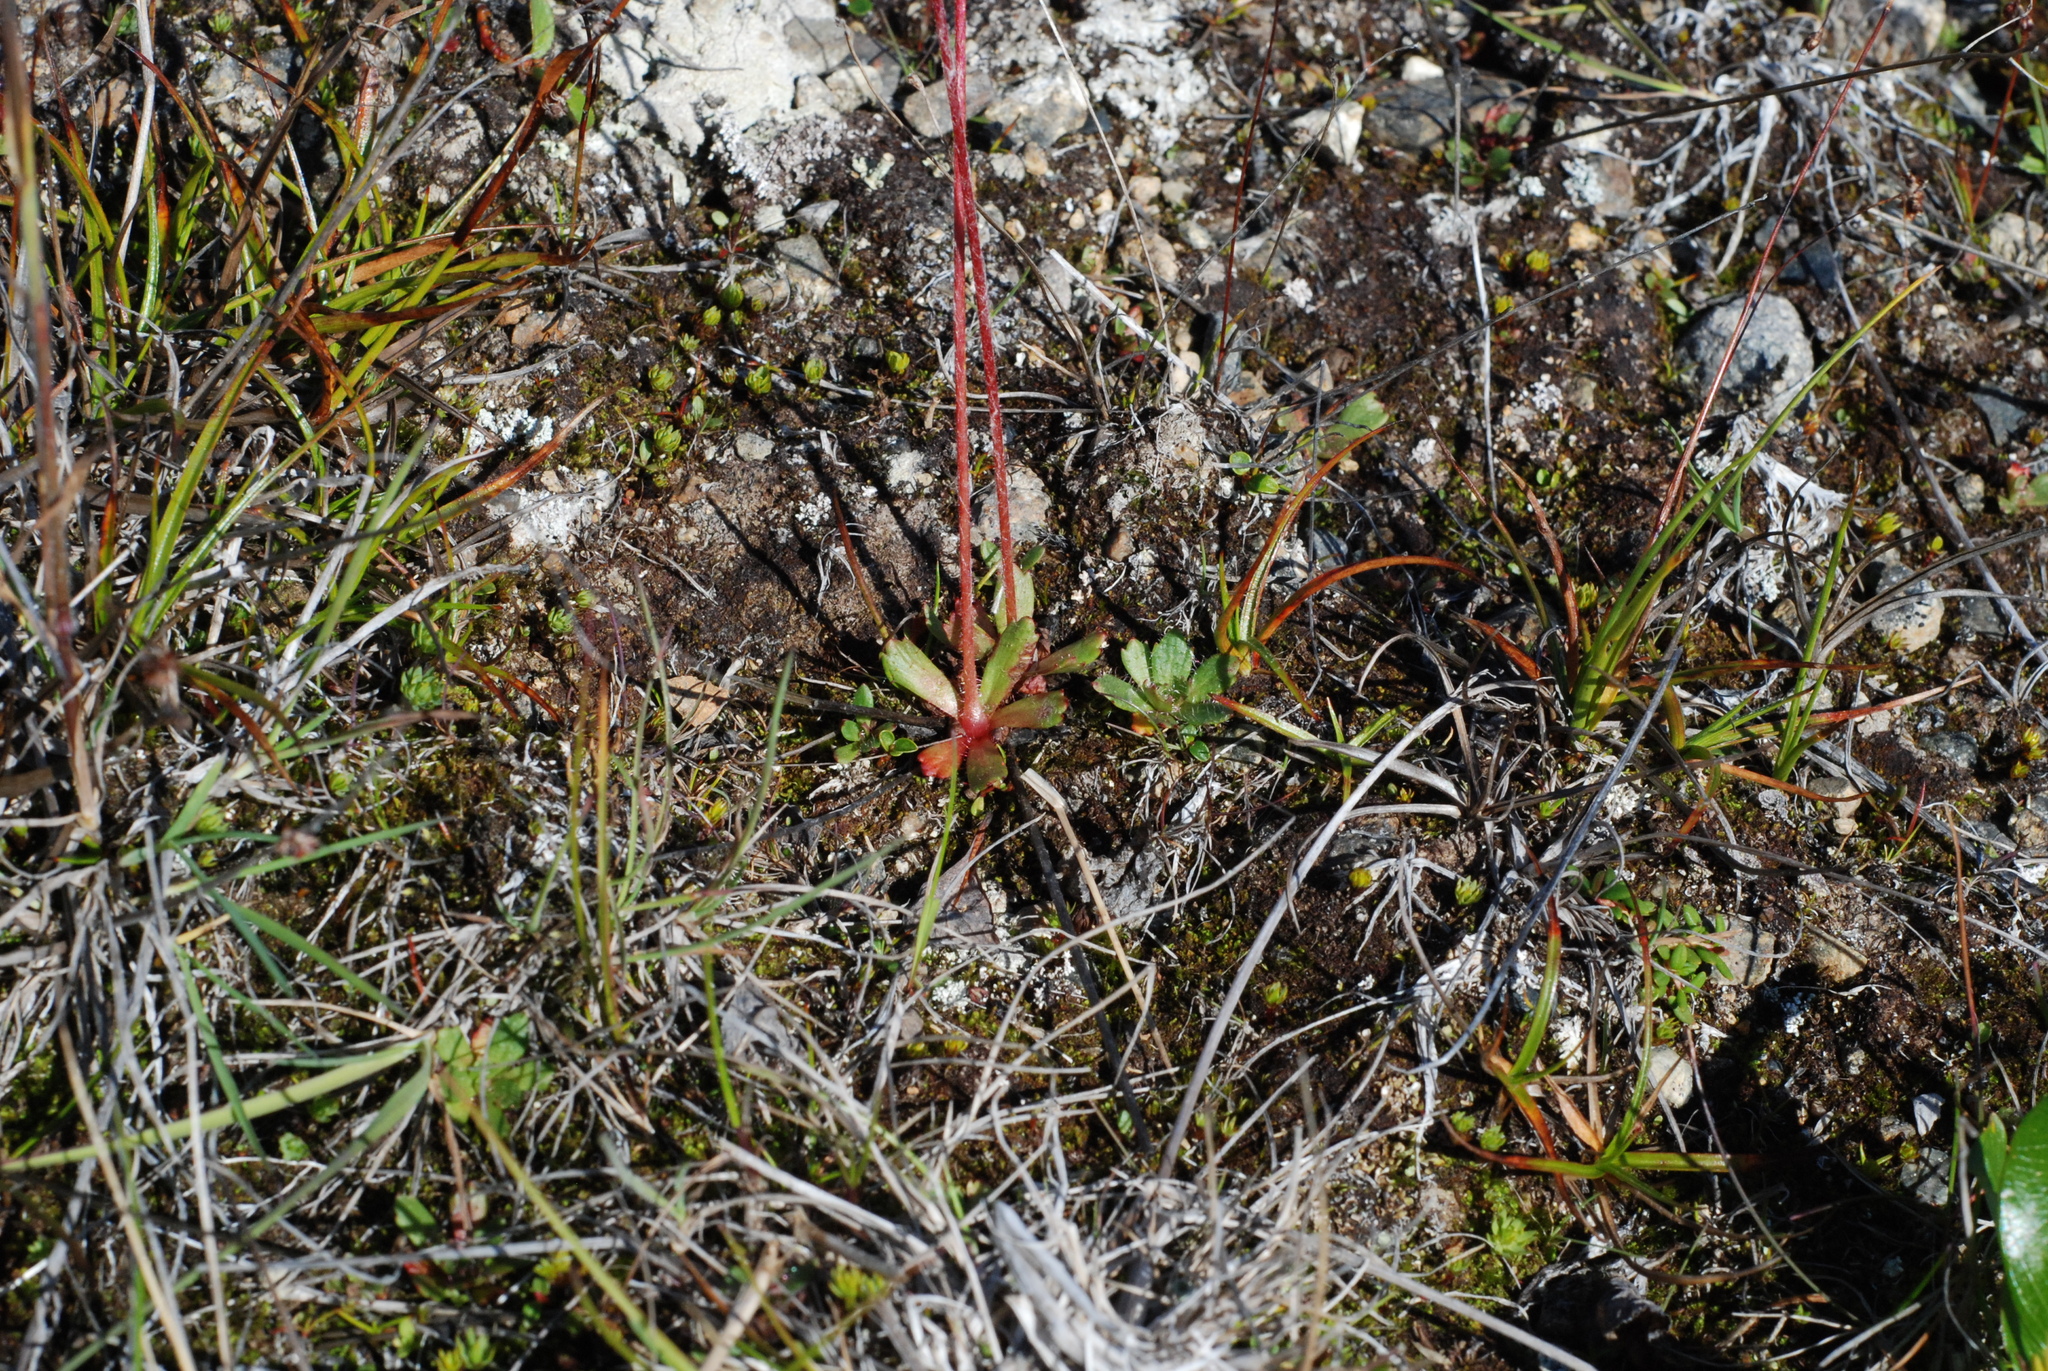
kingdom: Plantae
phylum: Tracheophyta
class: Magnoliopsida
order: Saxifragales
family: Saxifragaceae
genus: Micranthes
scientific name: Micranthes foliolosa
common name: Leafystem saxifrage
